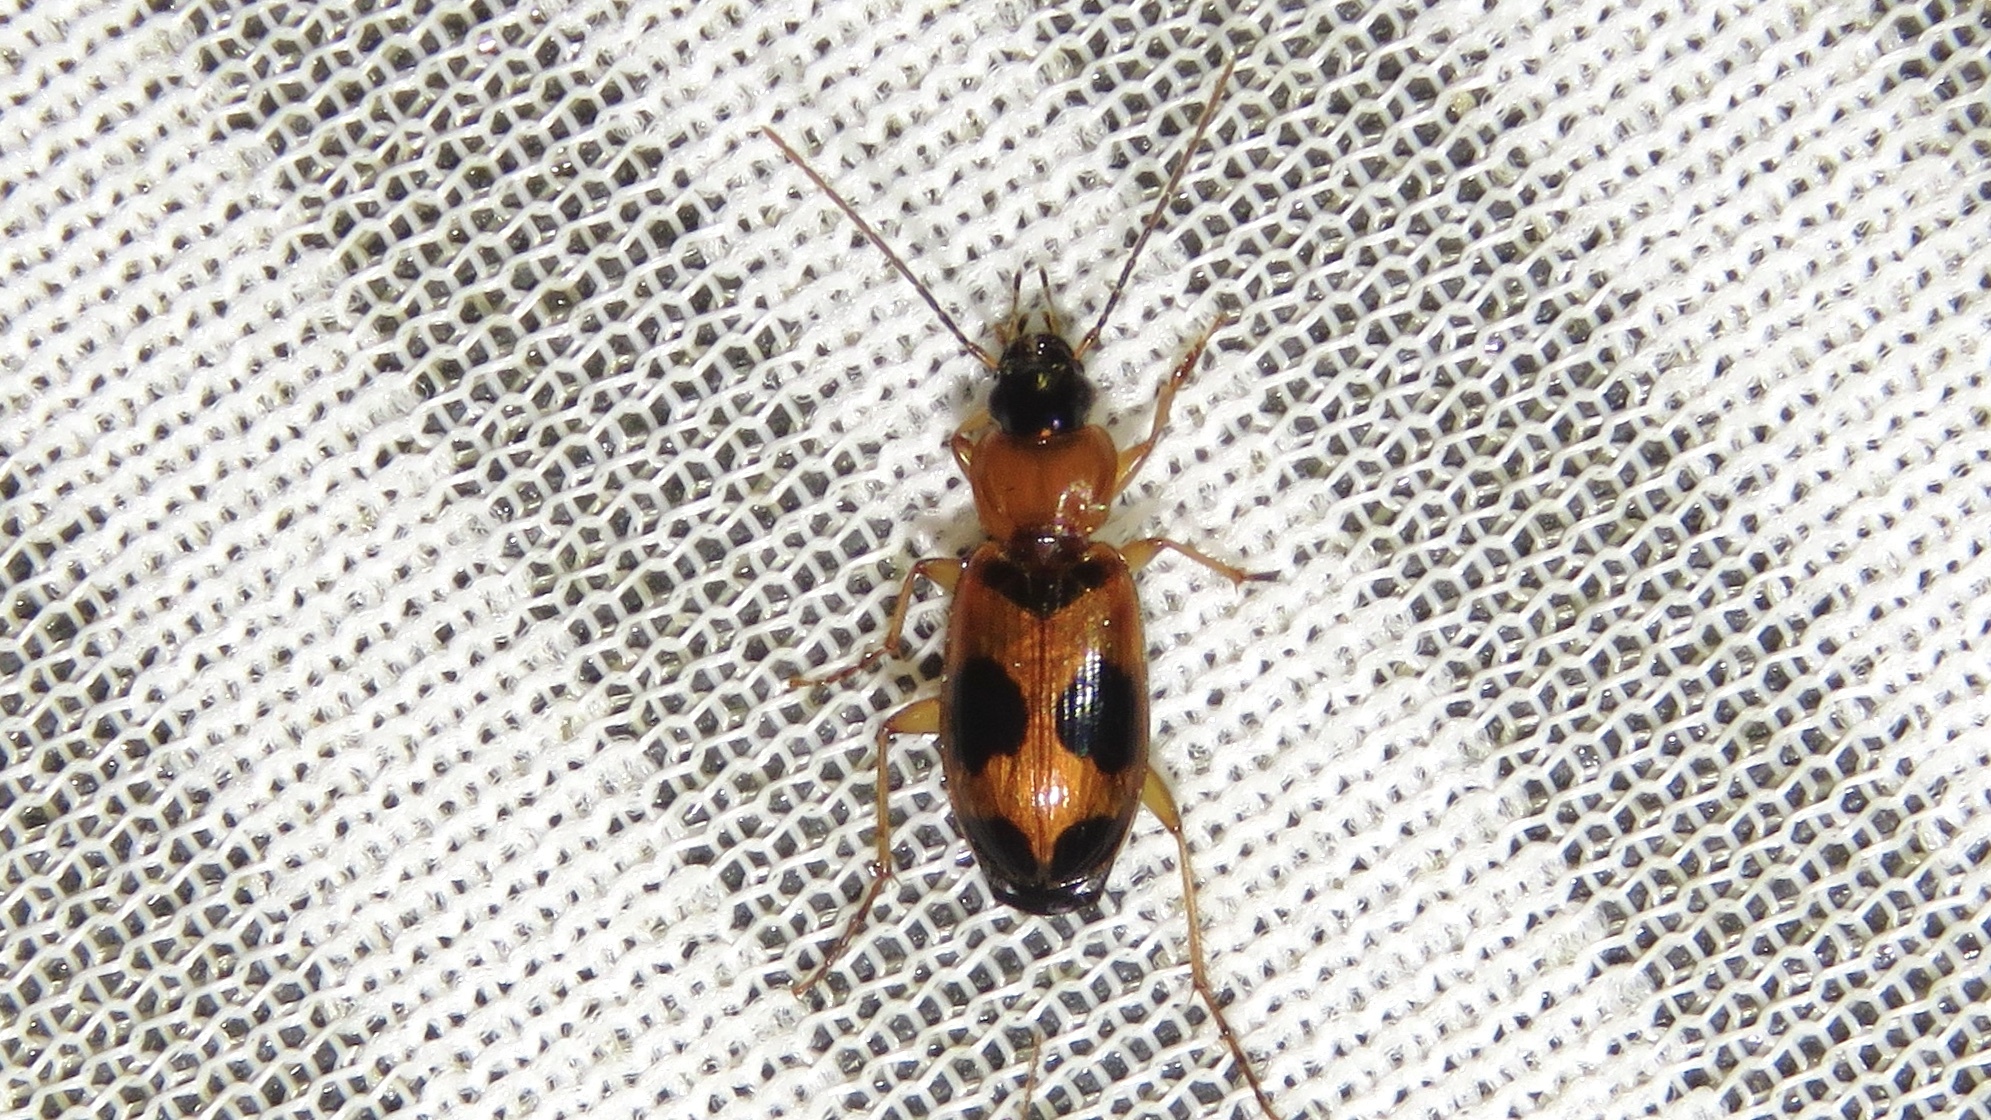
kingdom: Animalia
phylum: Arthropoda
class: Insecta
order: Coleoptera
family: Carabidae
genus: Badister
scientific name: Badister neopulchellus
